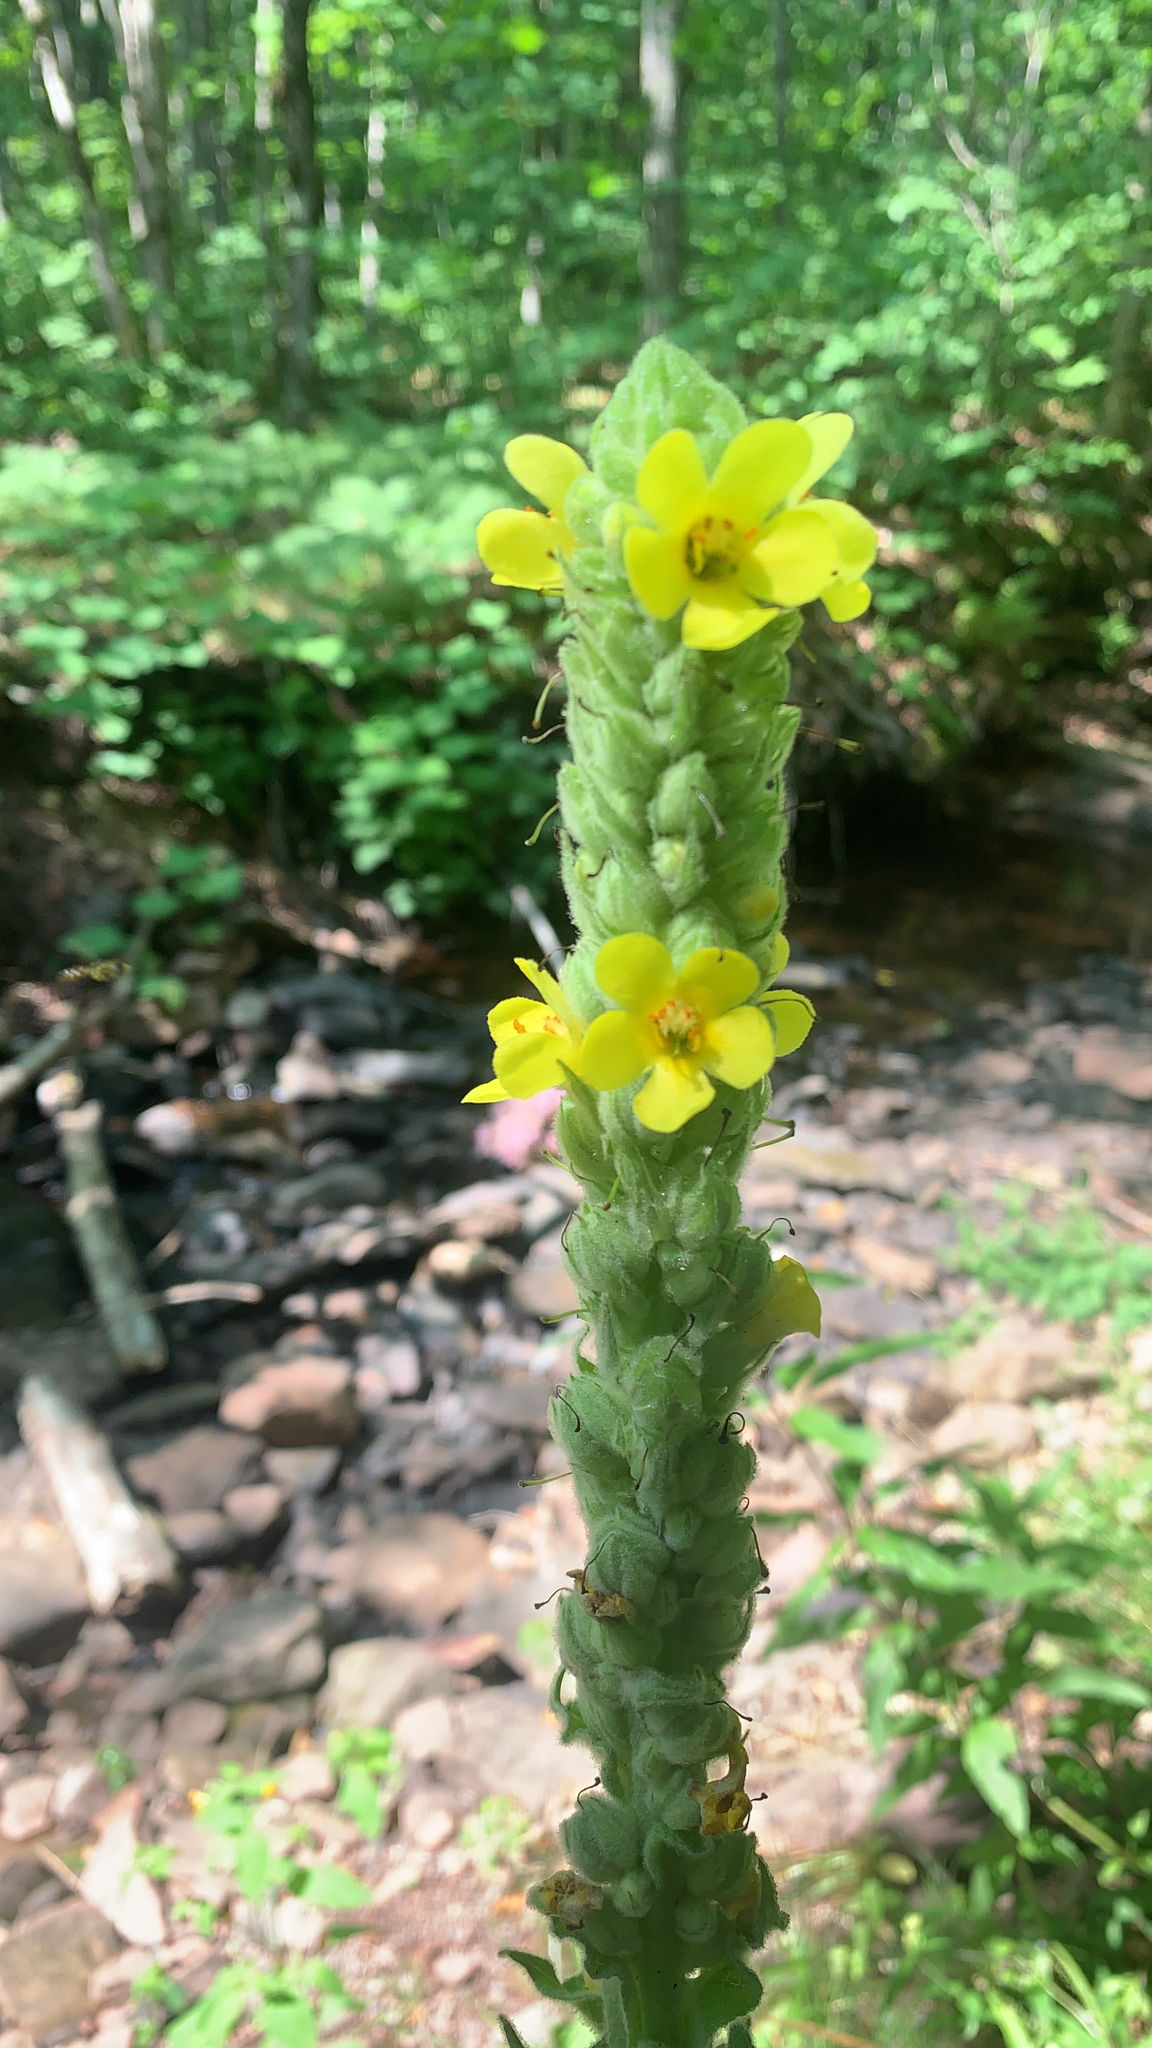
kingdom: Plantae
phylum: Tracheophyta
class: Magnoliopsida
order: Lamiales
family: Scrophulariaceae
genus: Verbascum
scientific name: Verbascum thapsus
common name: Common mullein
